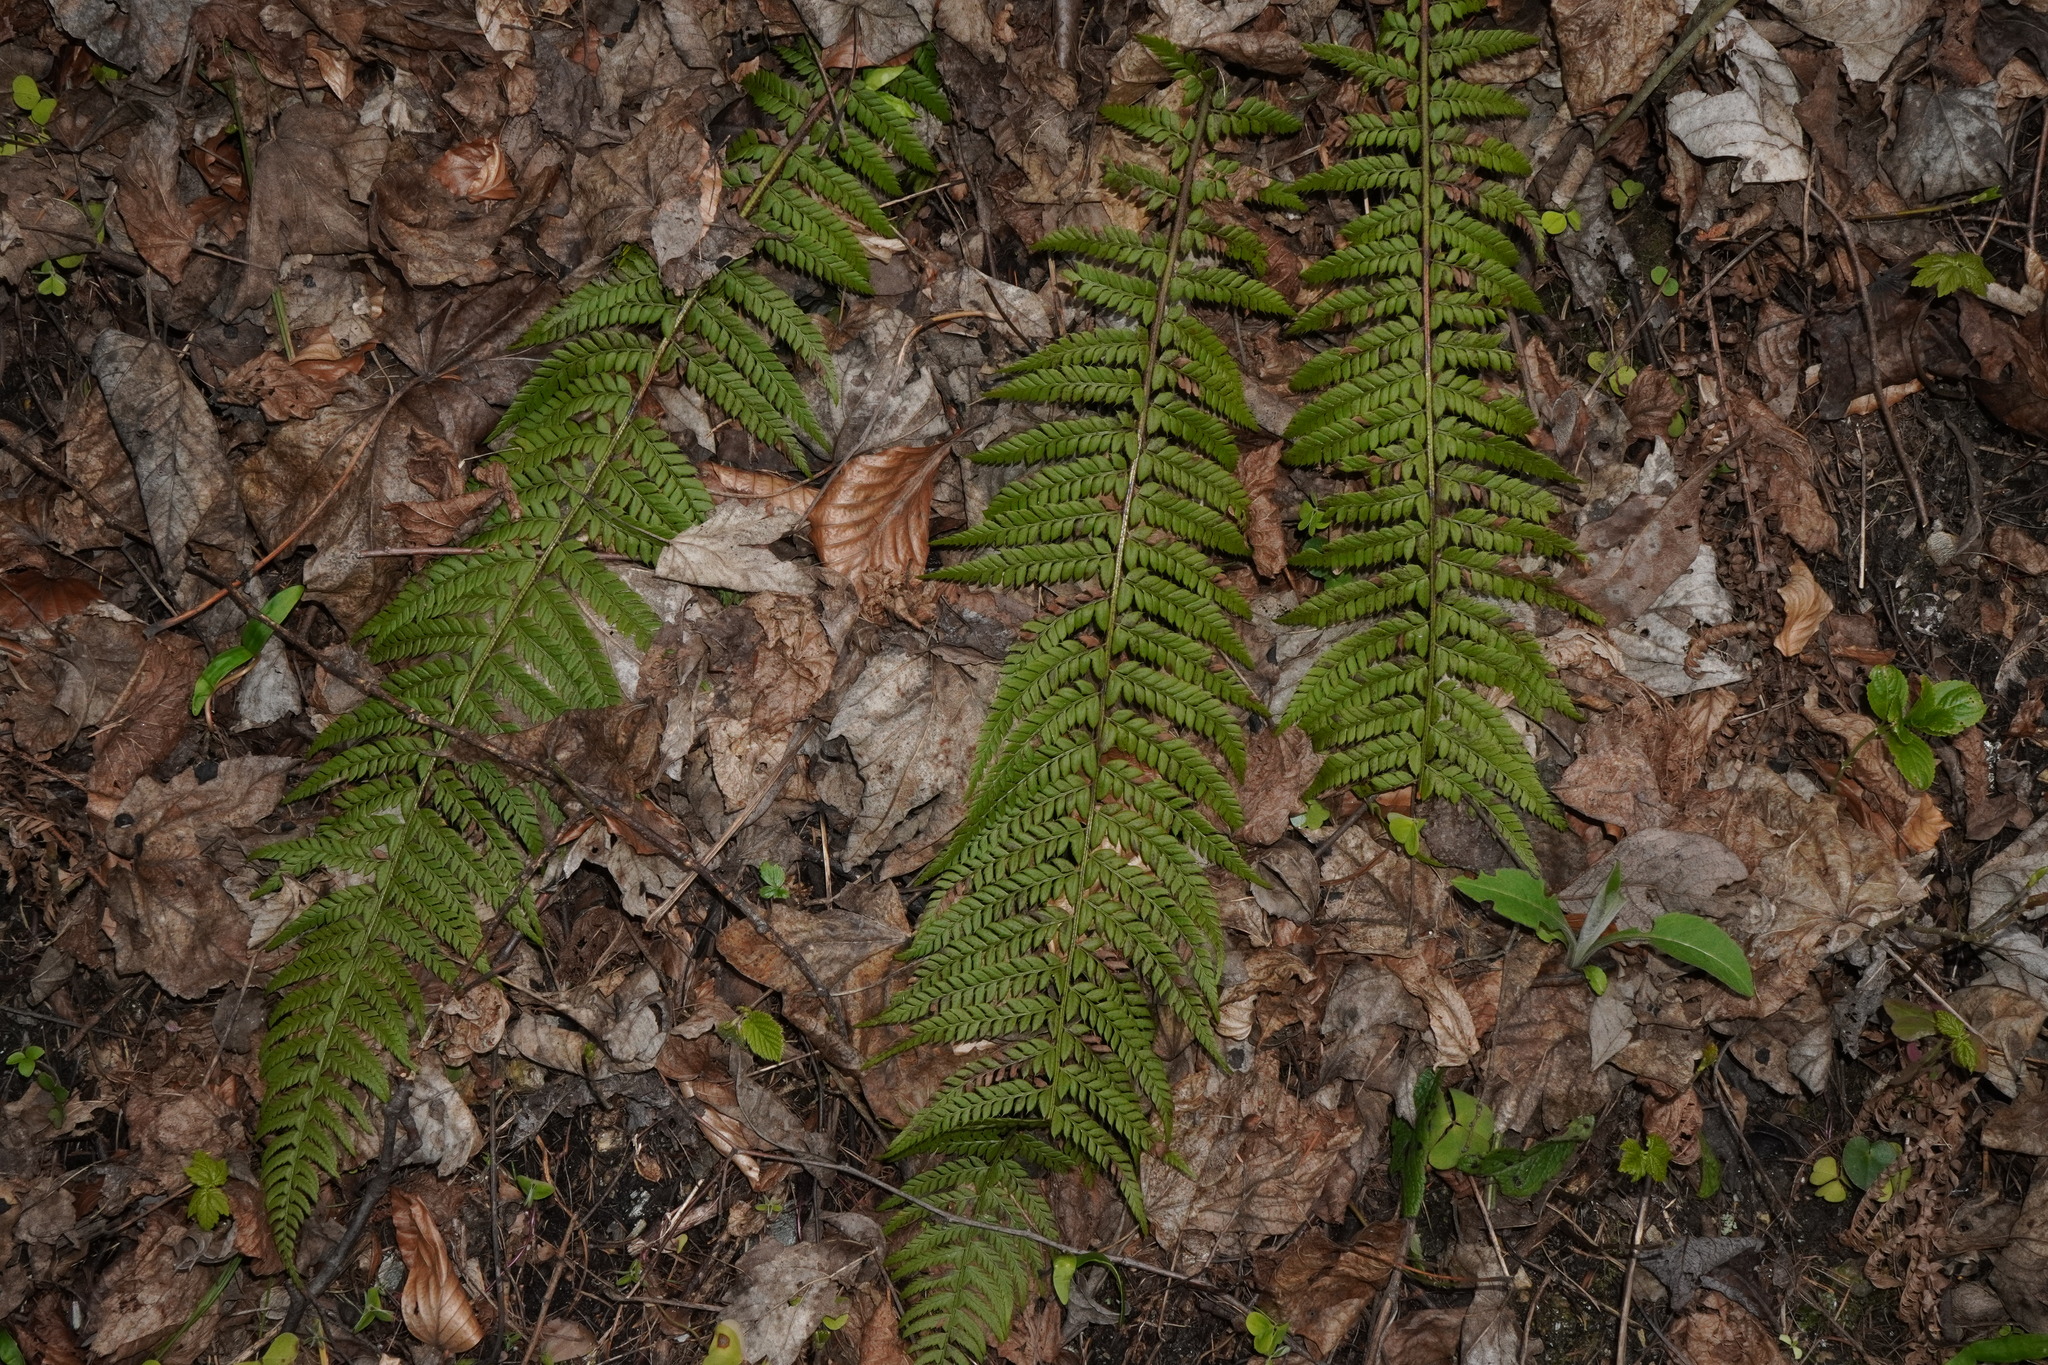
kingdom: Plantae
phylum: Tracheophyta
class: Polypodiopsida
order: Polypodiales
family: Dryopteridaceae
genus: Polystichum
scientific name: Polystichum aculeatum
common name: Hard shield-fern
